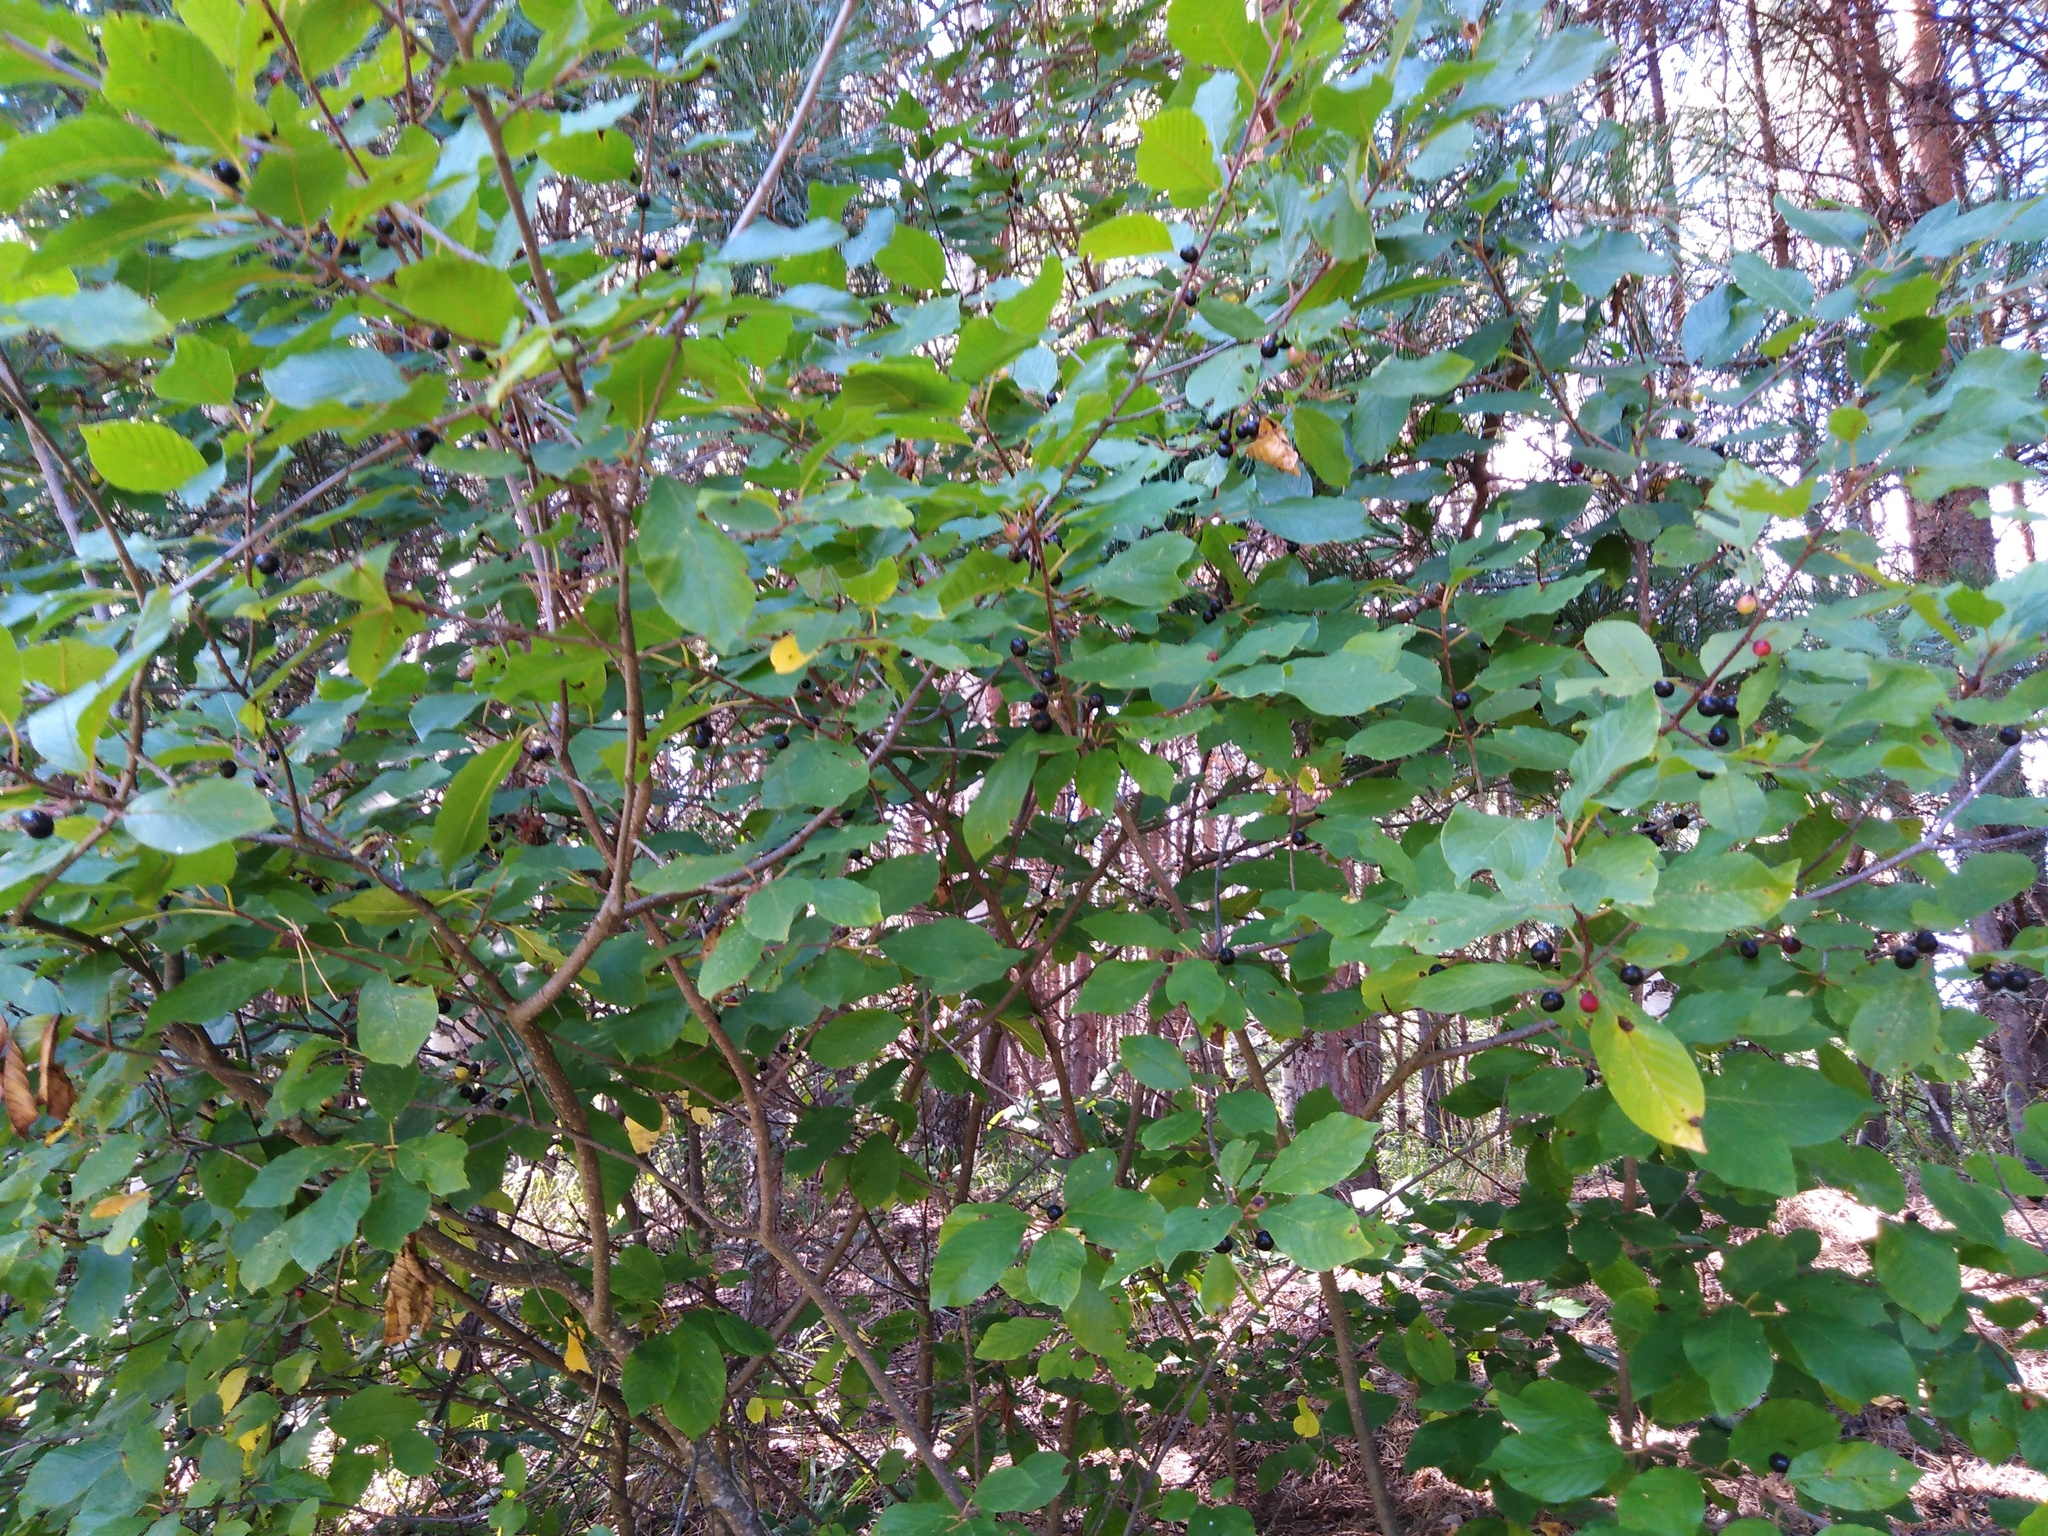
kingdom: Plantae
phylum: Tracheophyta
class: Magnoliopsida
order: Rosales
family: Rhamnaceae
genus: Frangula
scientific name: Frangula alnus
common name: Alder buckthorn
